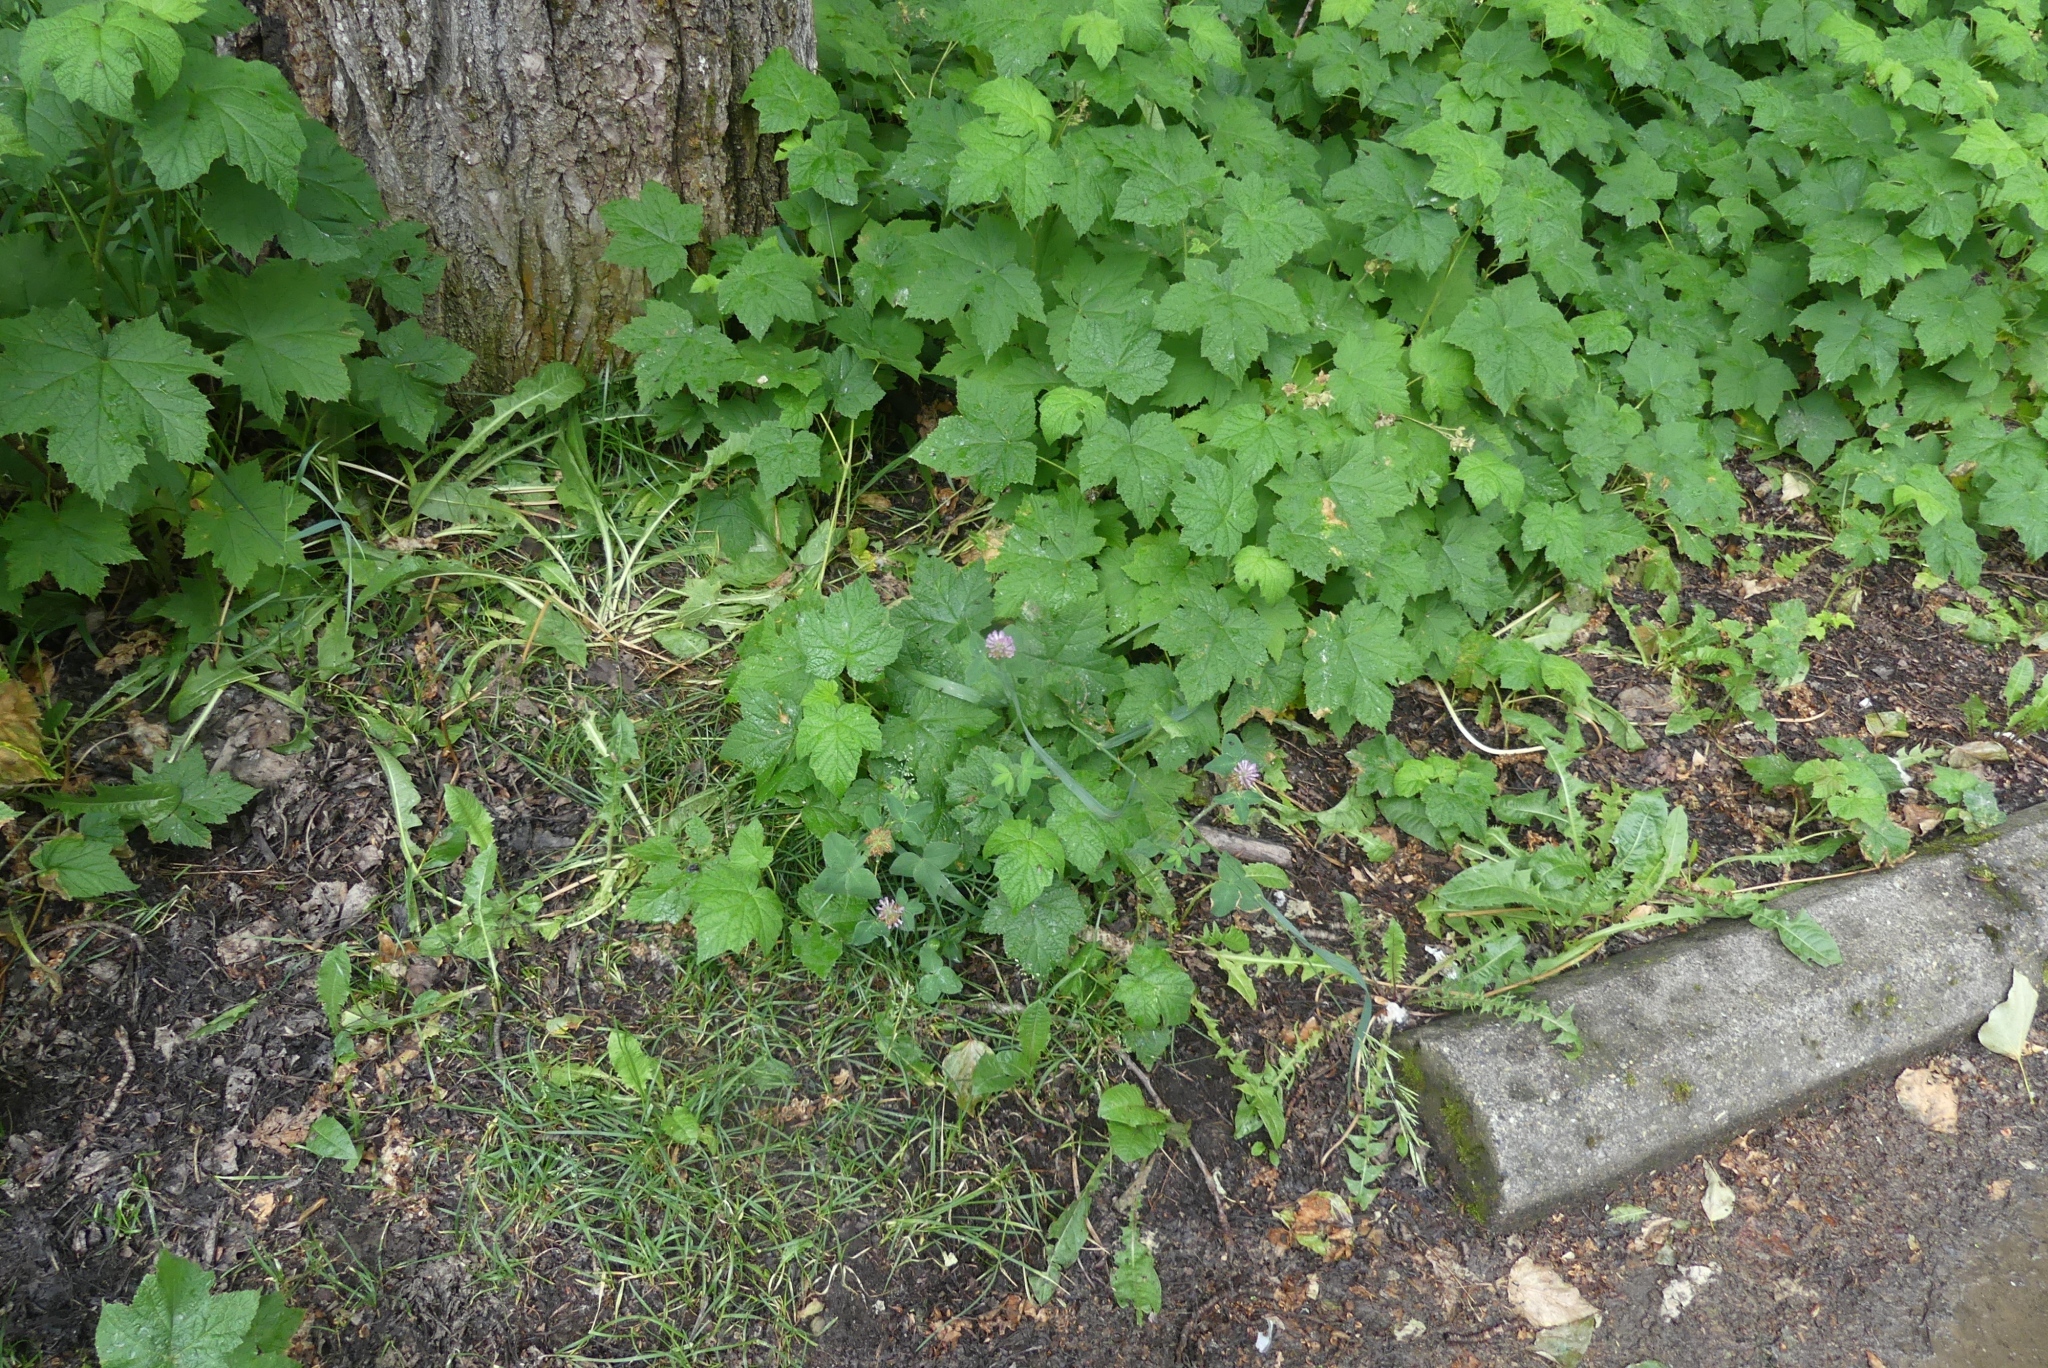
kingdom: Plantae
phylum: Tracheophyta
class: Magnoliopsida
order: Fabales
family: Fabaceae
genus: Trifolium
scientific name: Trifolium pratense
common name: Red clover
